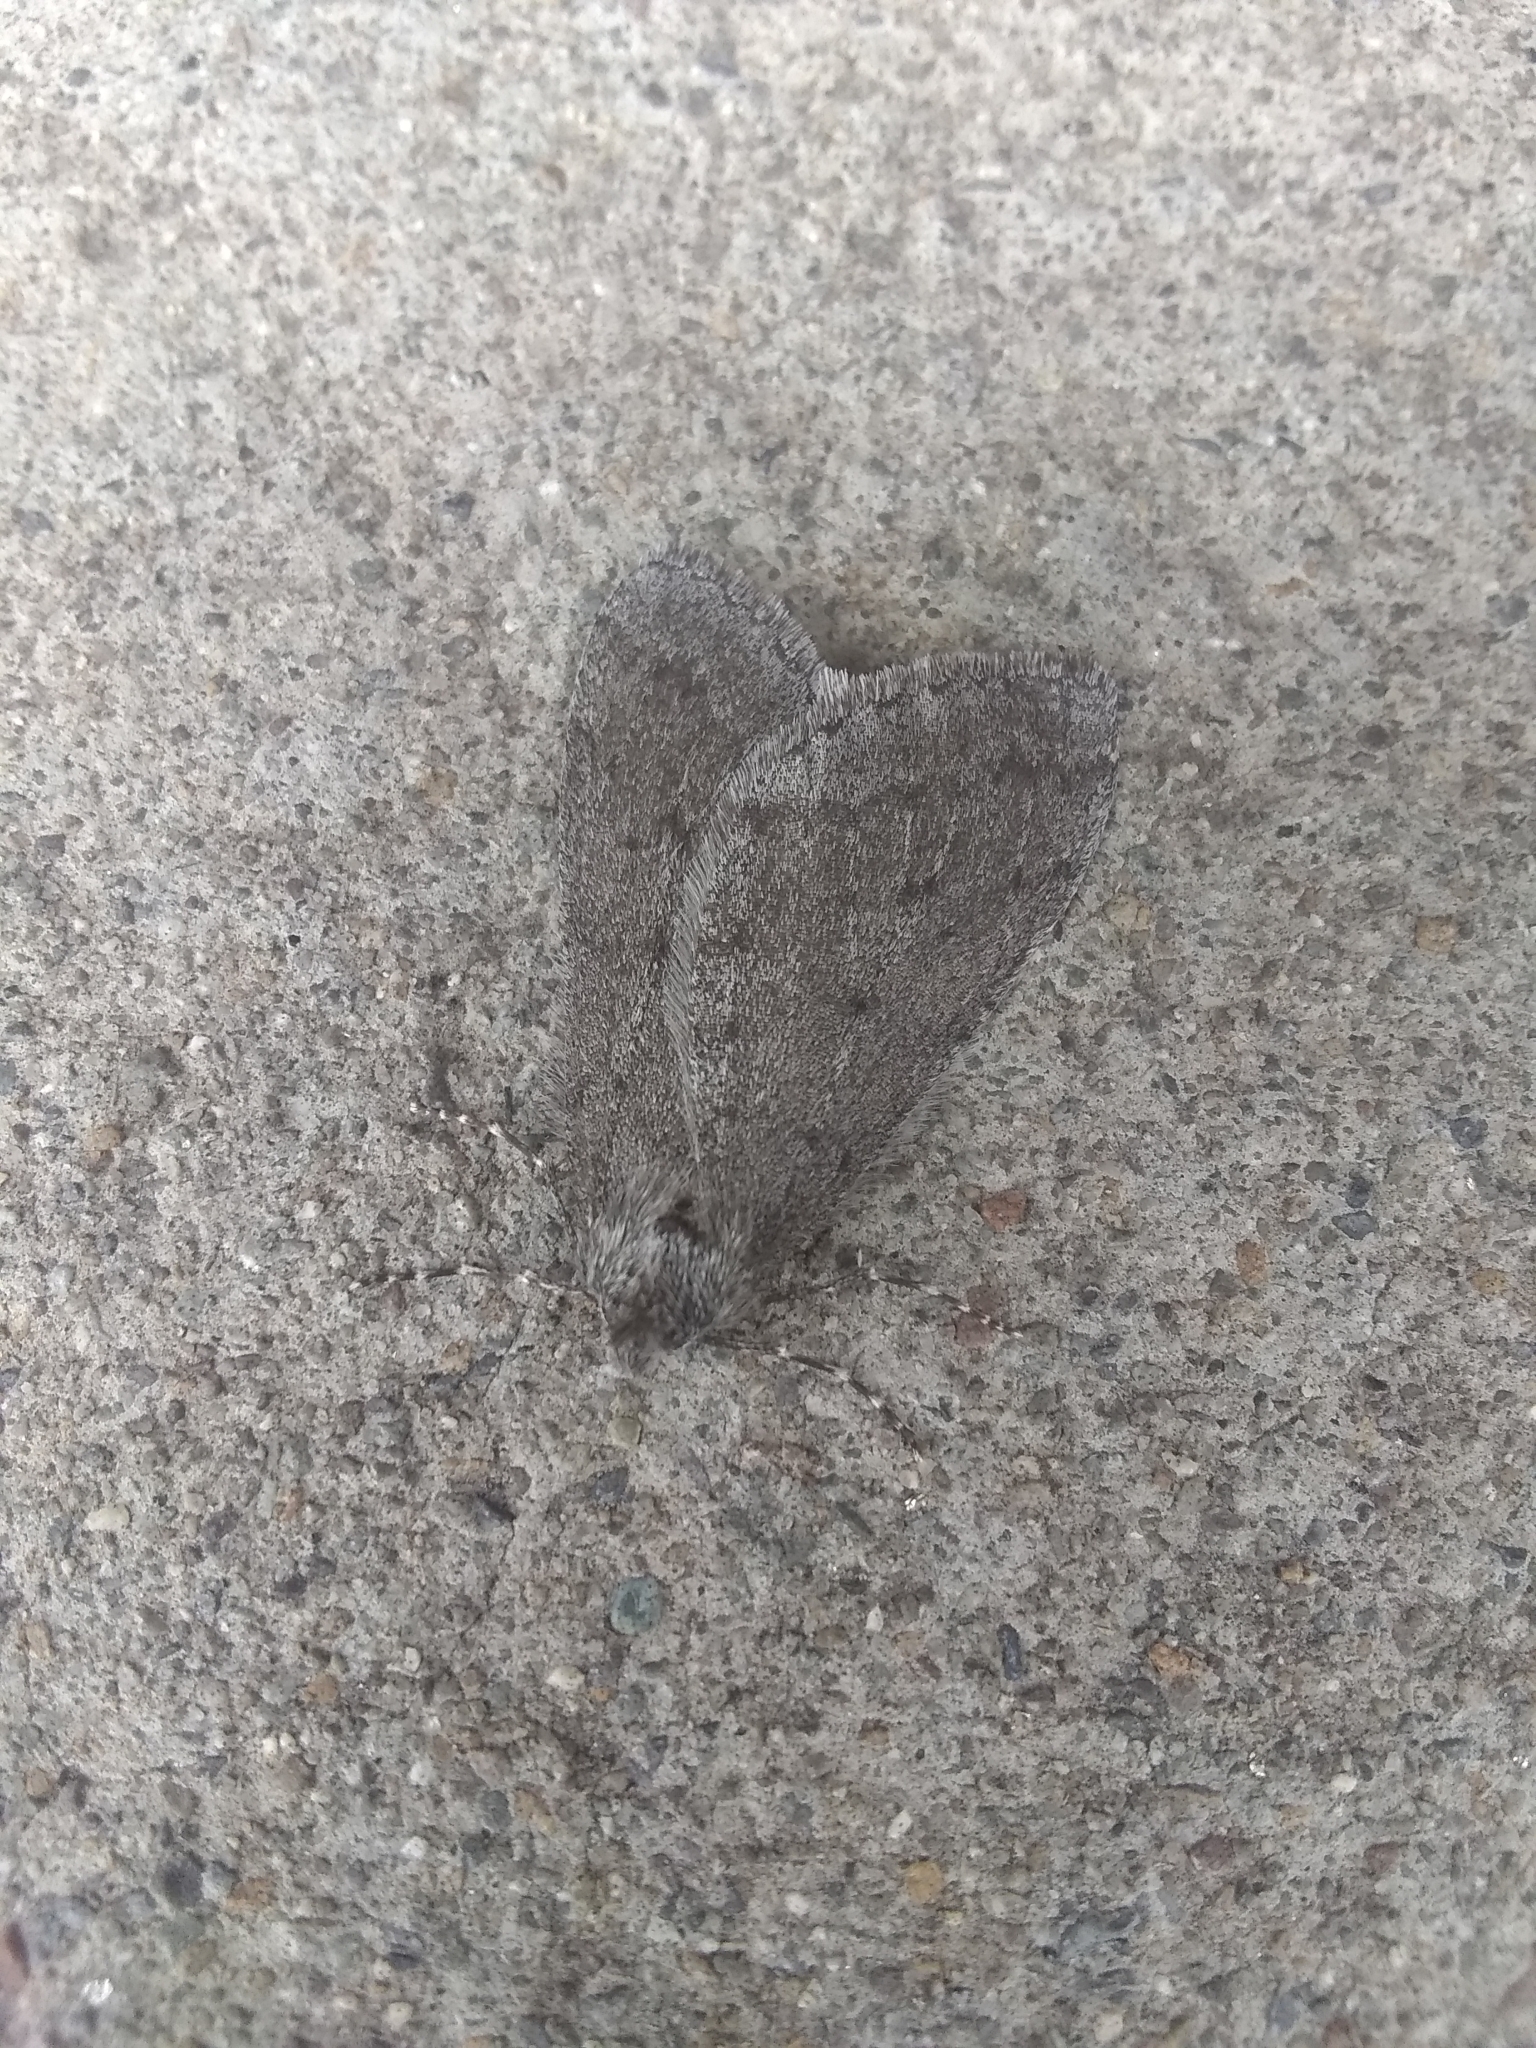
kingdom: Animalia
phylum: Arthropoda
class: Insecta
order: Lepidoptera
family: Geometridae
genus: Phigalia
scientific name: Phigalia plumogeraria
